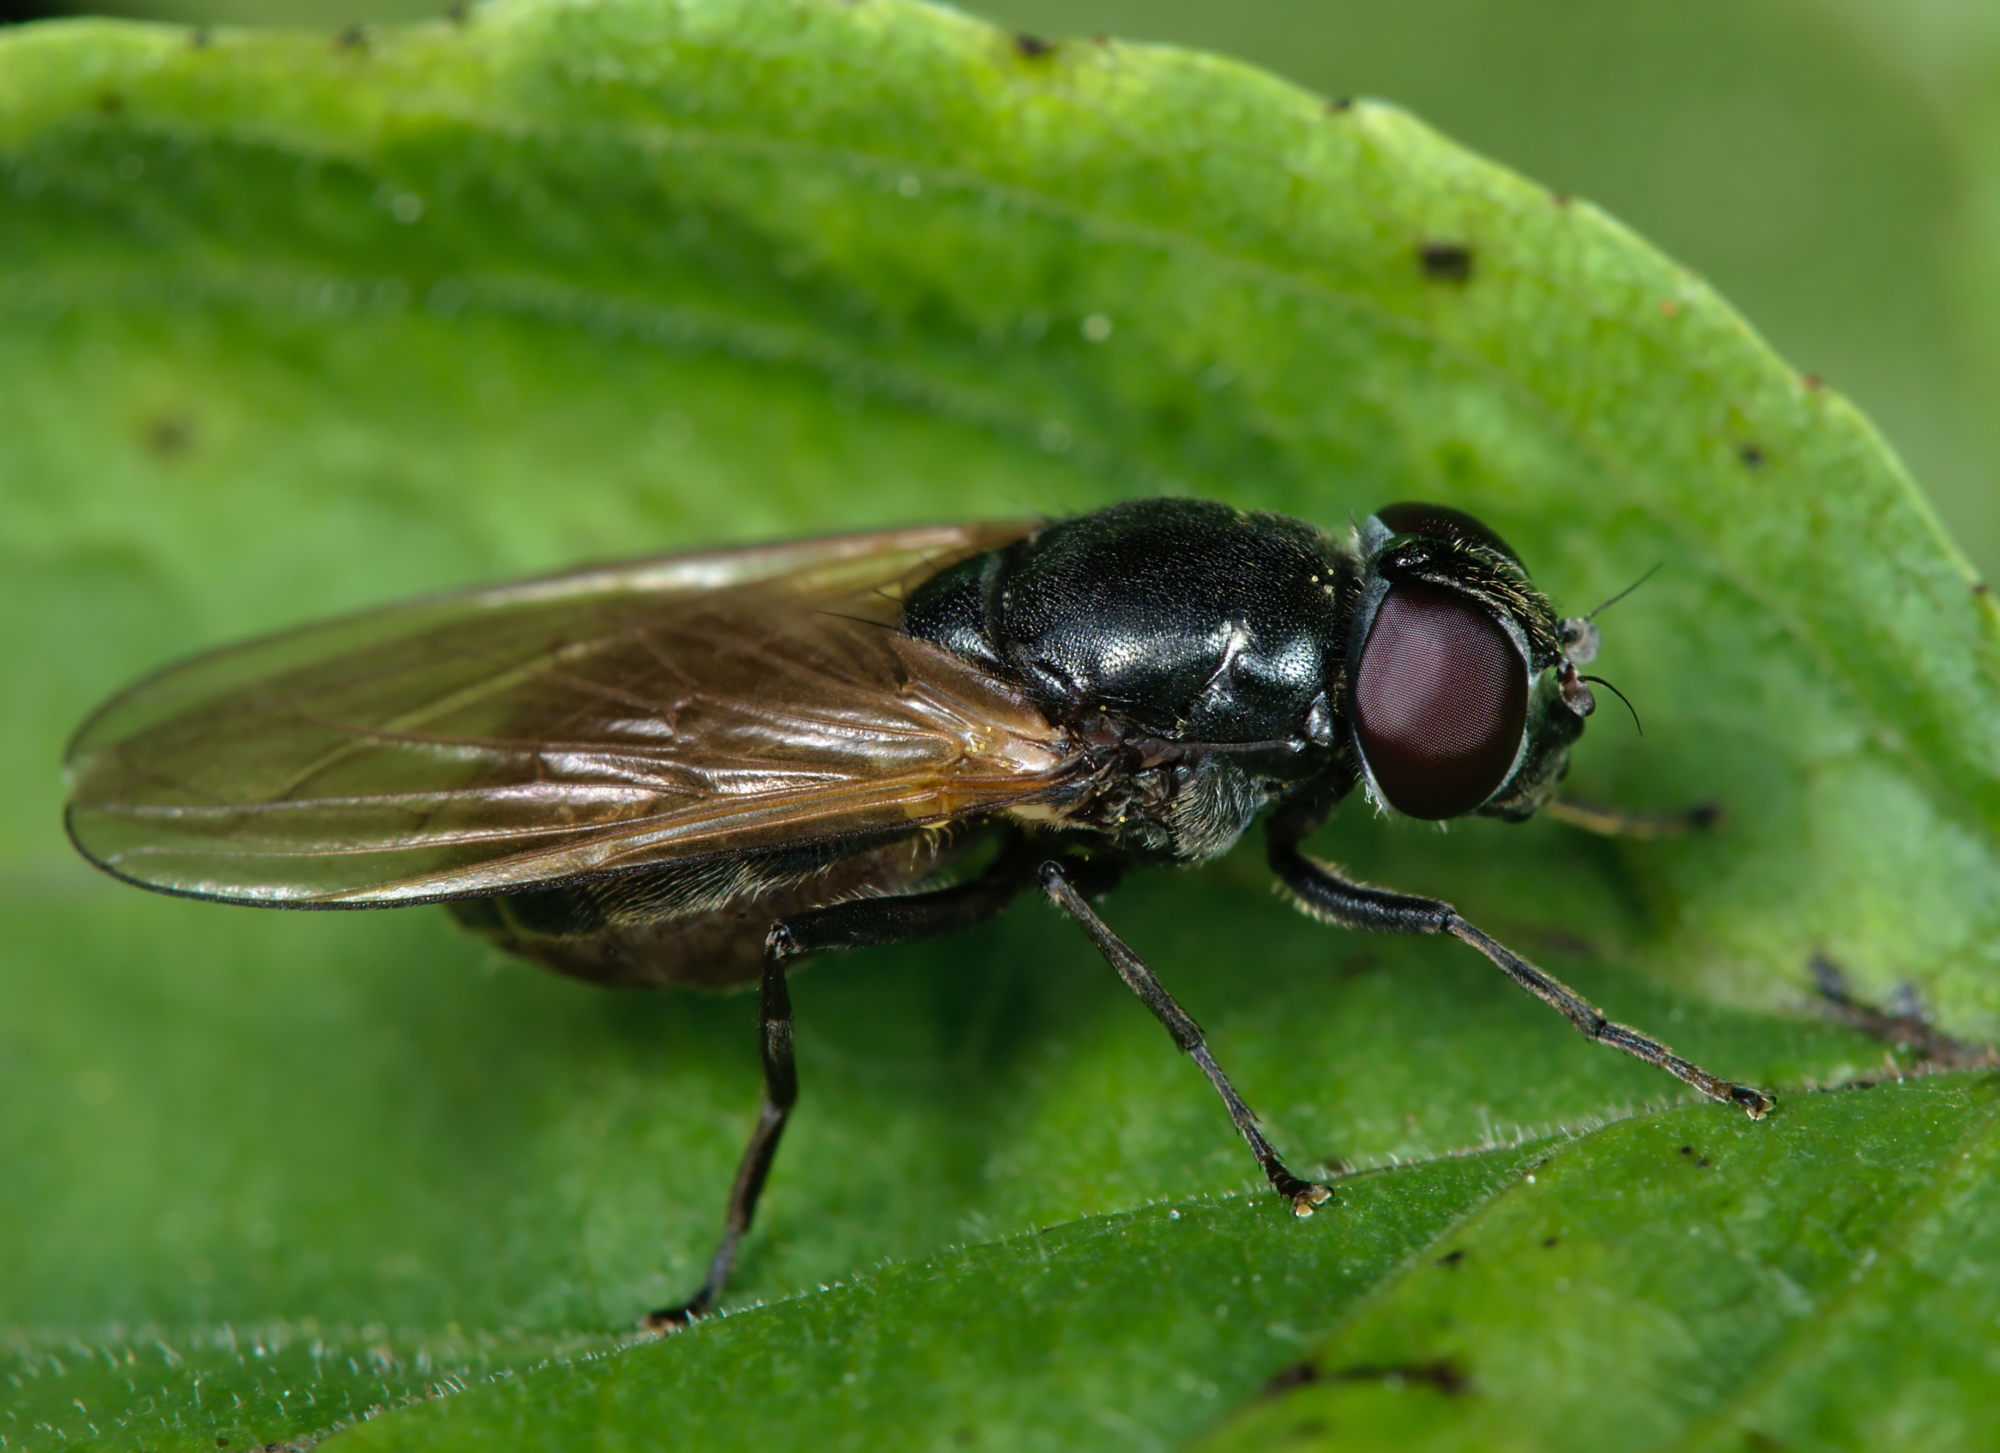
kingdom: Animalia
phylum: Arthropoda
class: Insecta
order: Diptera
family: Syrphidae
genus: Cheilosia
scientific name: Cheilosia
